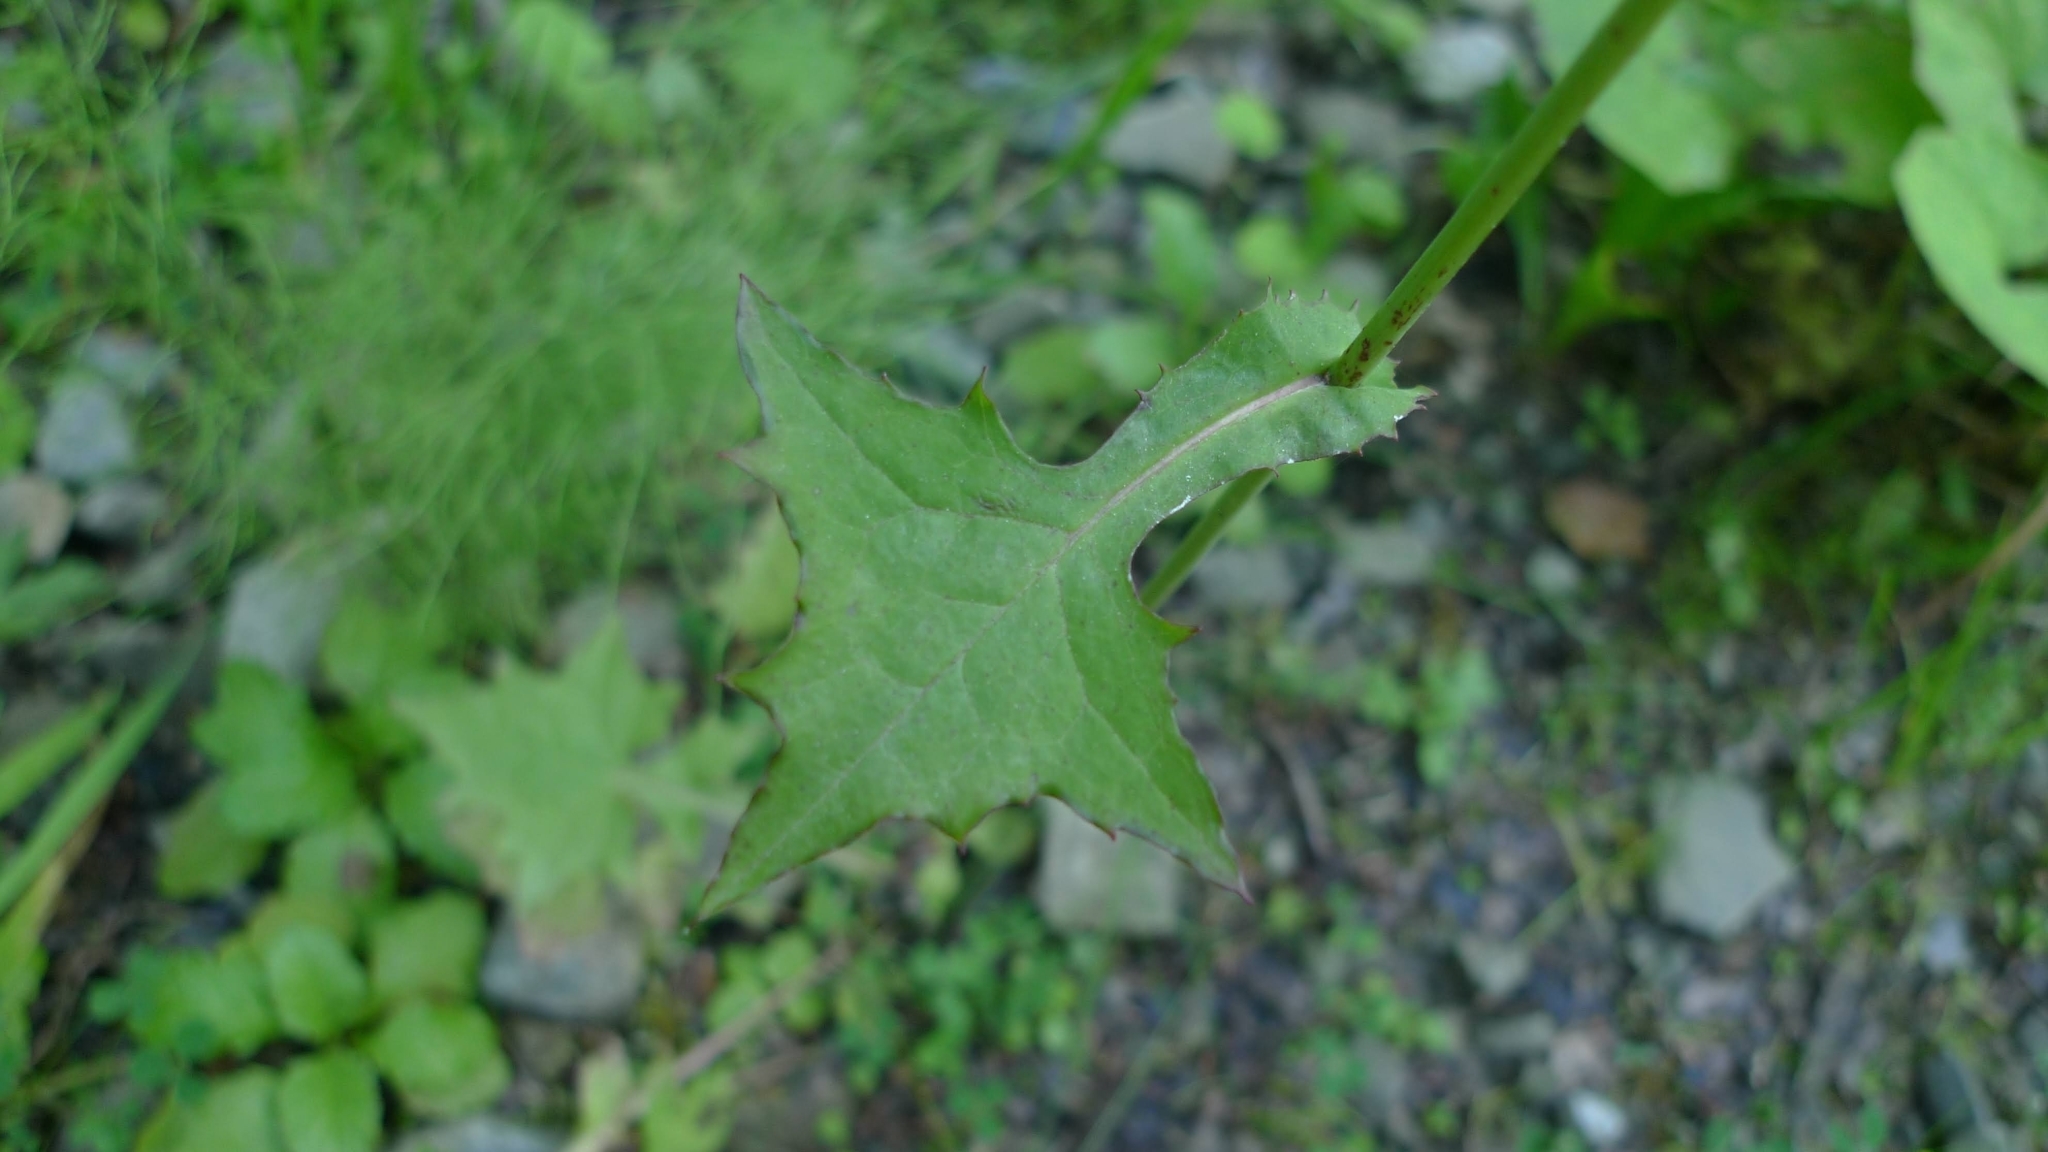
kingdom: Plantae
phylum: Tracheophyta
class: Magnoliopsida
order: Asterales
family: Asteraceae
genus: Mycelis
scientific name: Mycelis muralis
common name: Wall lettuce
